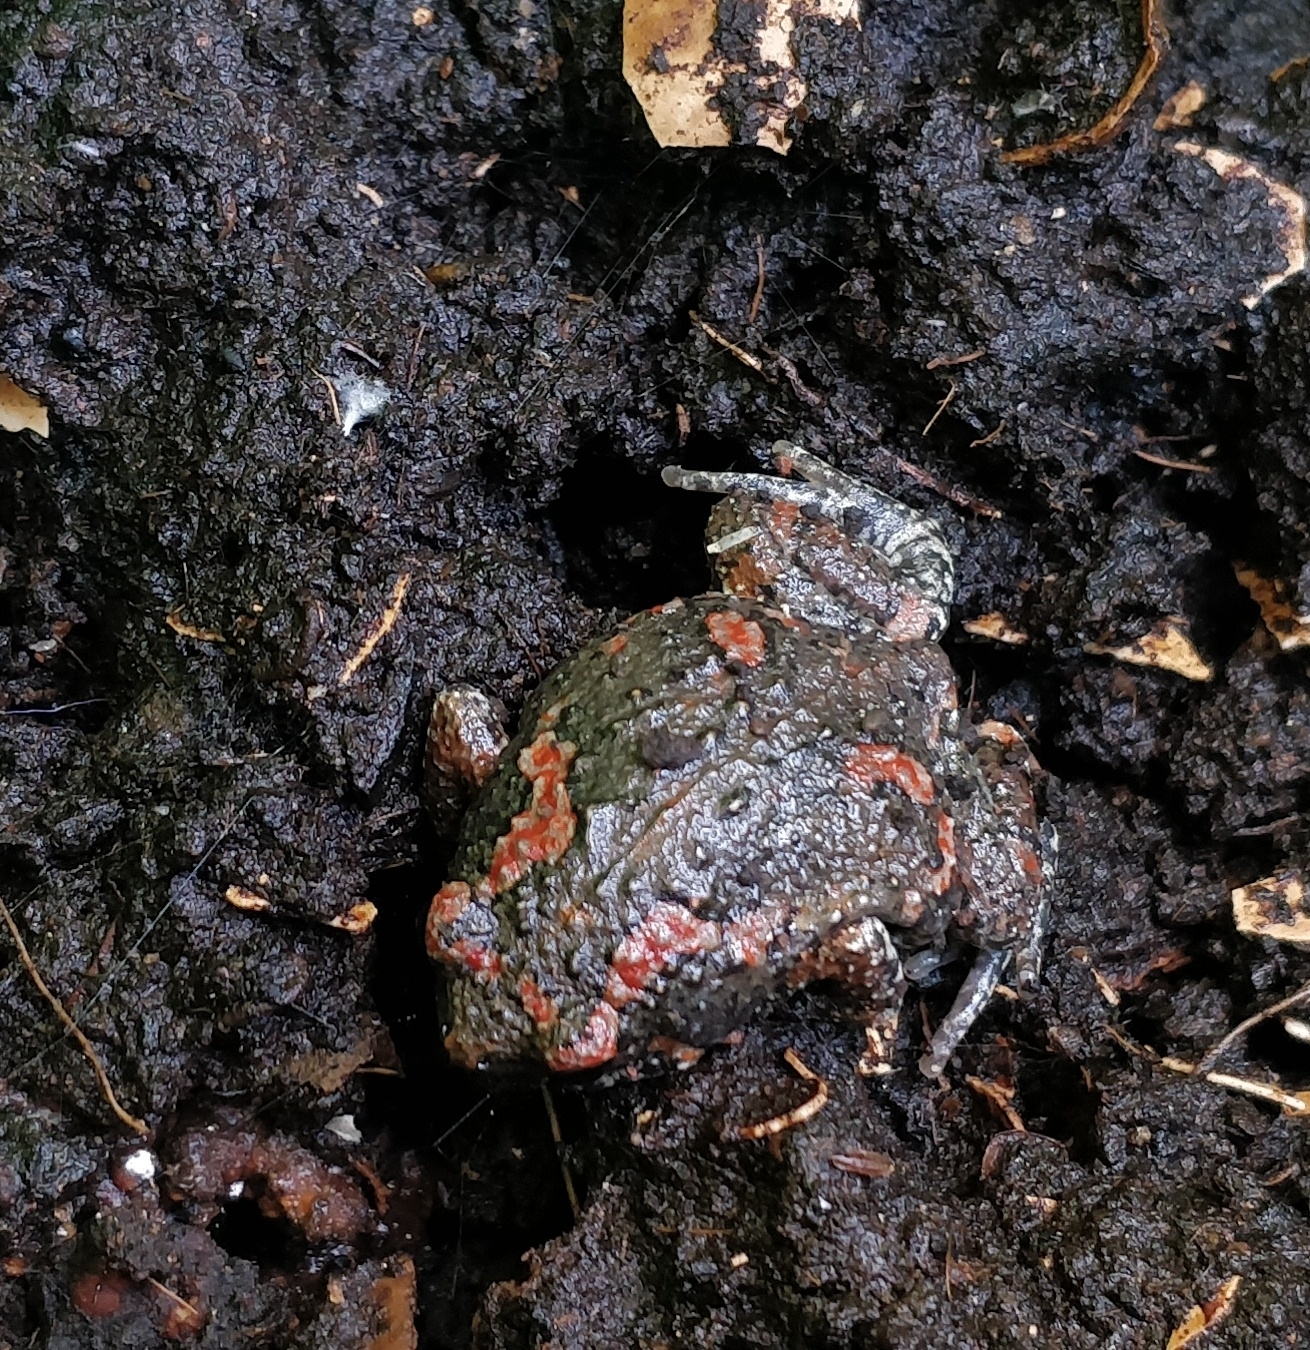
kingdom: Animalia
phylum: Chordata
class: Amphibia
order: Anura
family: Microhylidae
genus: Uperodon
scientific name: Uperodon taprobanicus
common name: Ceylon kaloula
